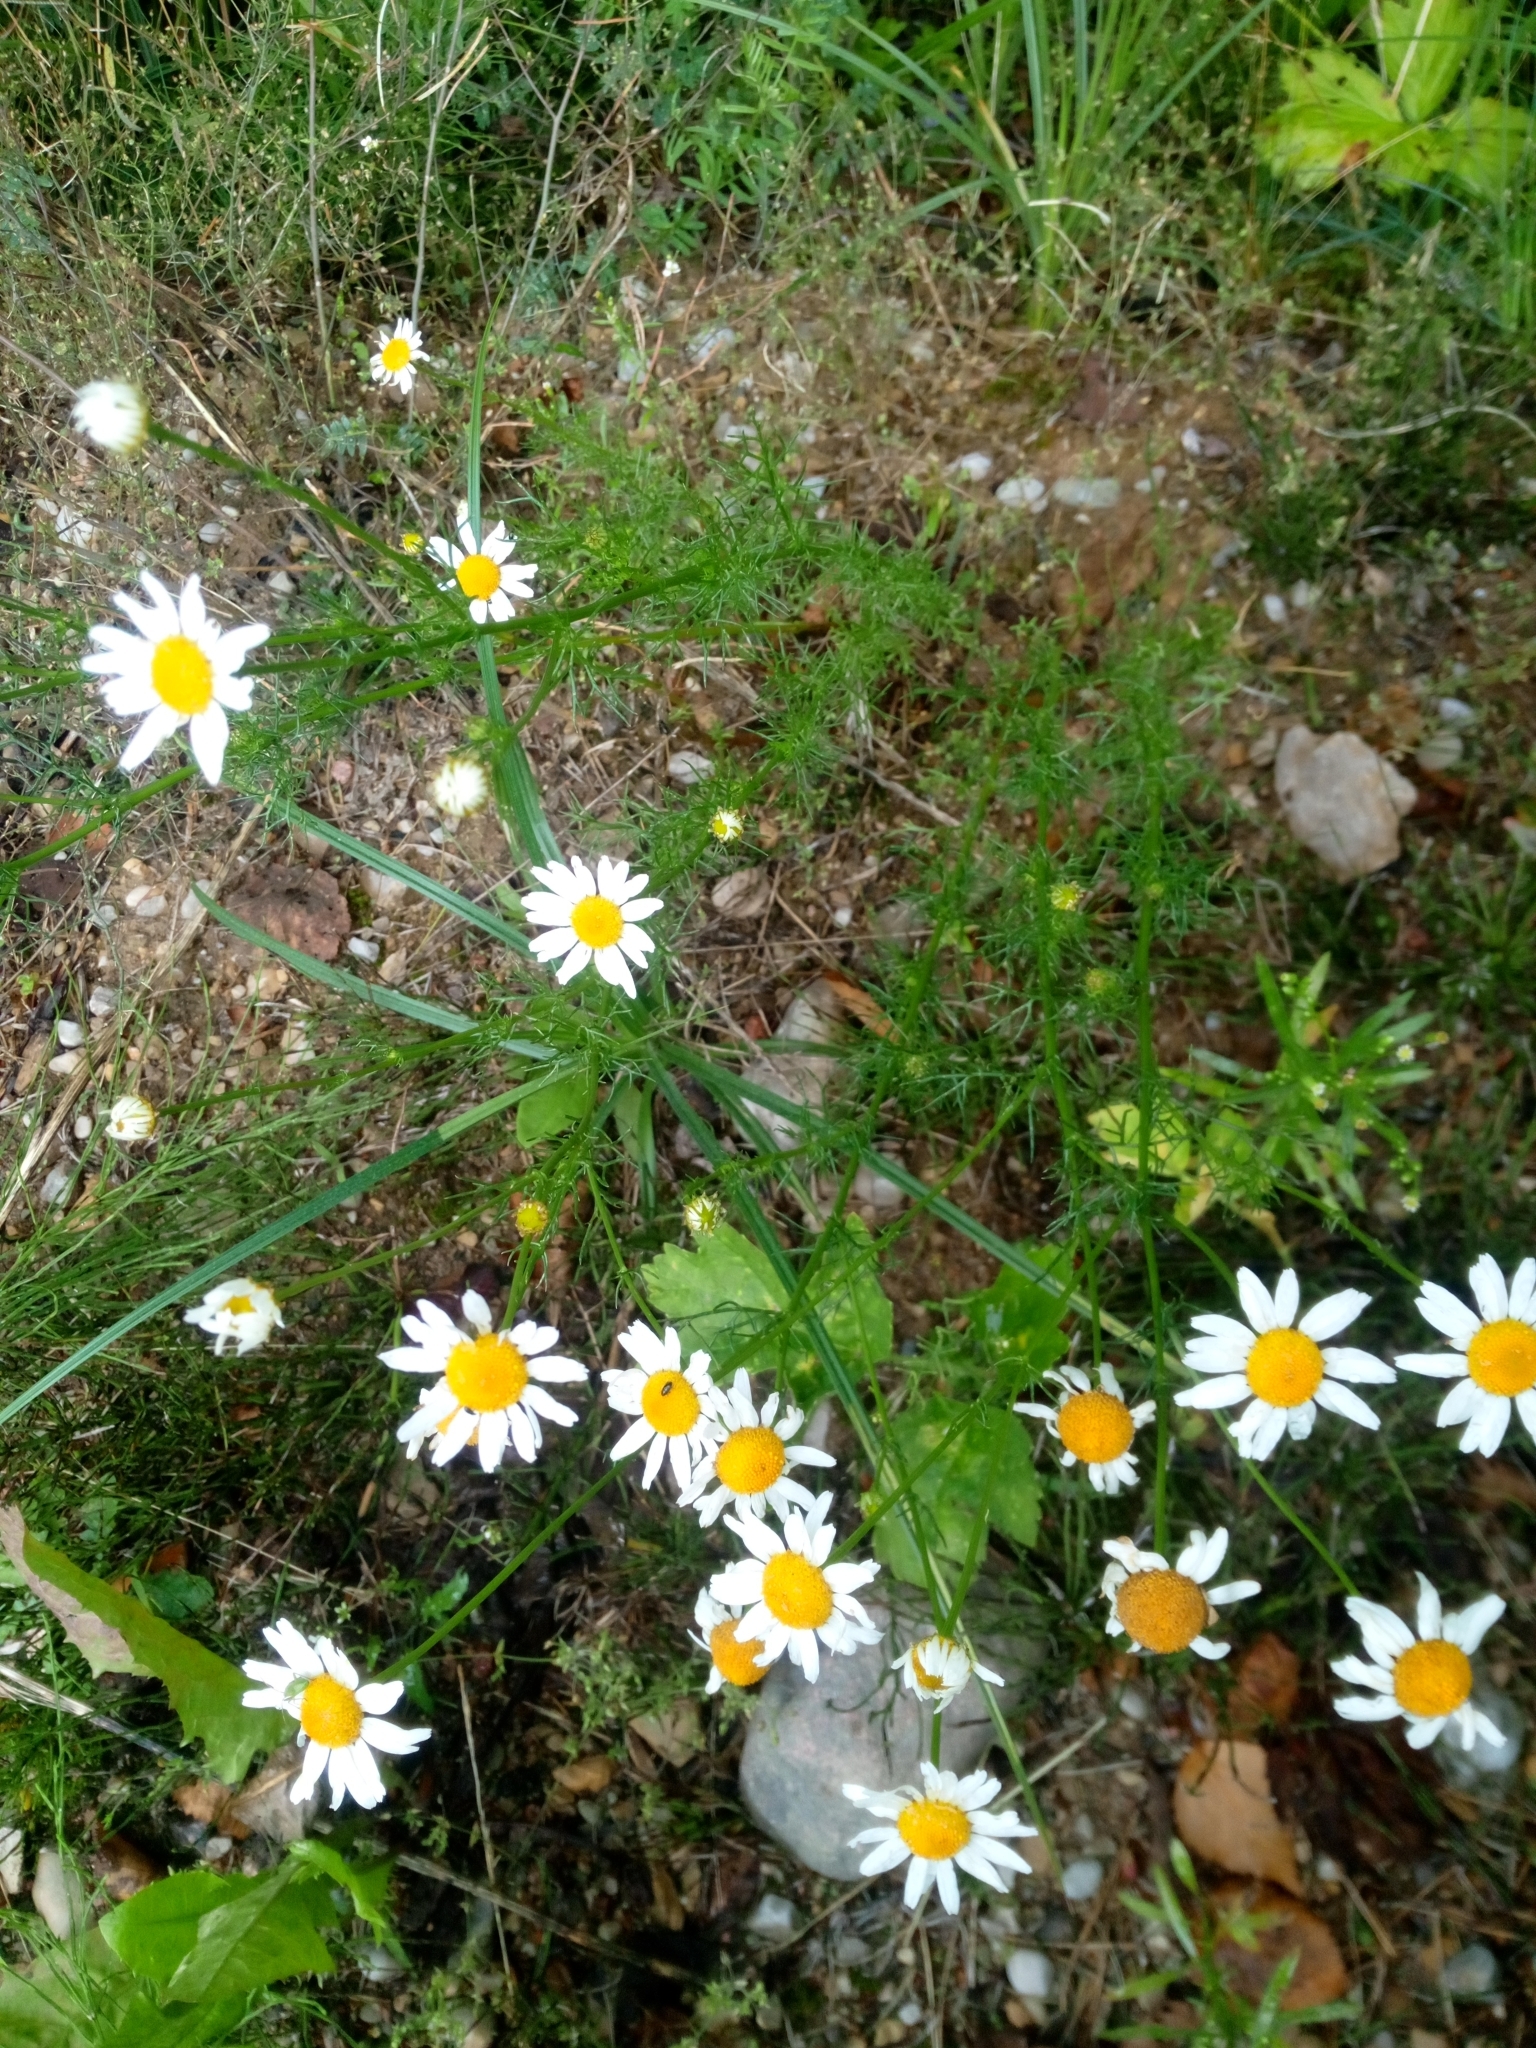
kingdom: Plantae
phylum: Tracheophyta
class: Magnoliopsida
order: Asterales
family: Asteraceae
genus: Tripleurospermum
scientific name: Tripleurospermum inodorum
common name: Scentless mayweed
